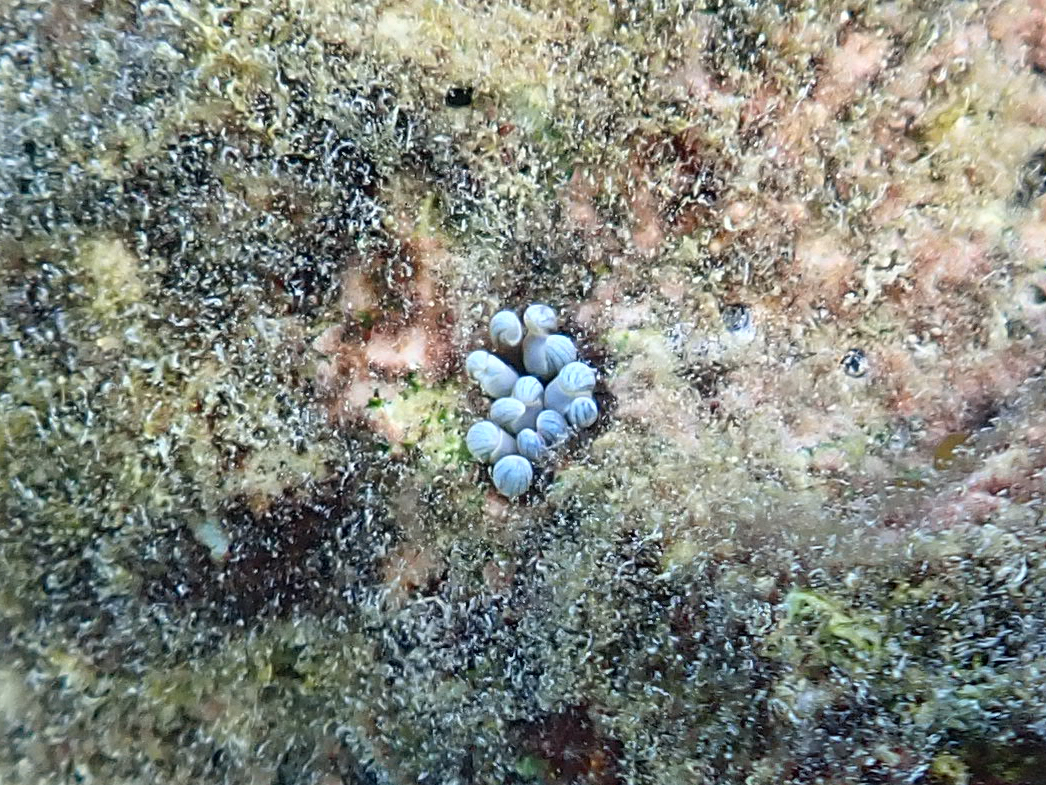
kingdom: Animalia
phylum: Cnidaria
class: Anthozoa
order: Actiniaria
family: Aliciidae
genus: Lebrunia
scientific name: Lebrunia coralligens
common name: Hidden anemone
